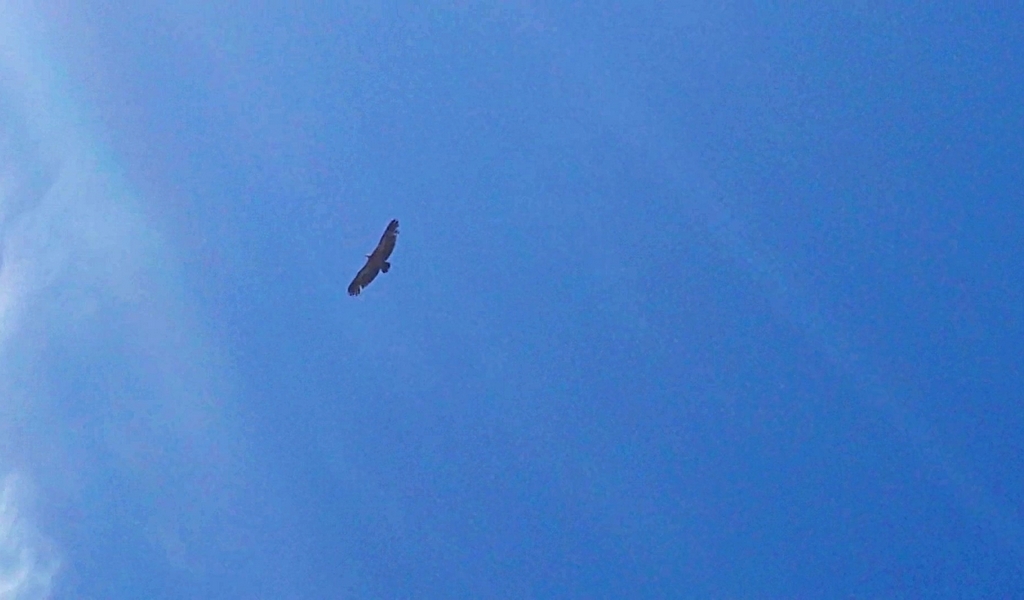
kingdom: Animalia
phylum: Chordata
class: Aves
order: Accipitriformes
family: Accipitridae
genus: Gyps
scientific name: Gyps fulvus
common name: Griffon vulture
